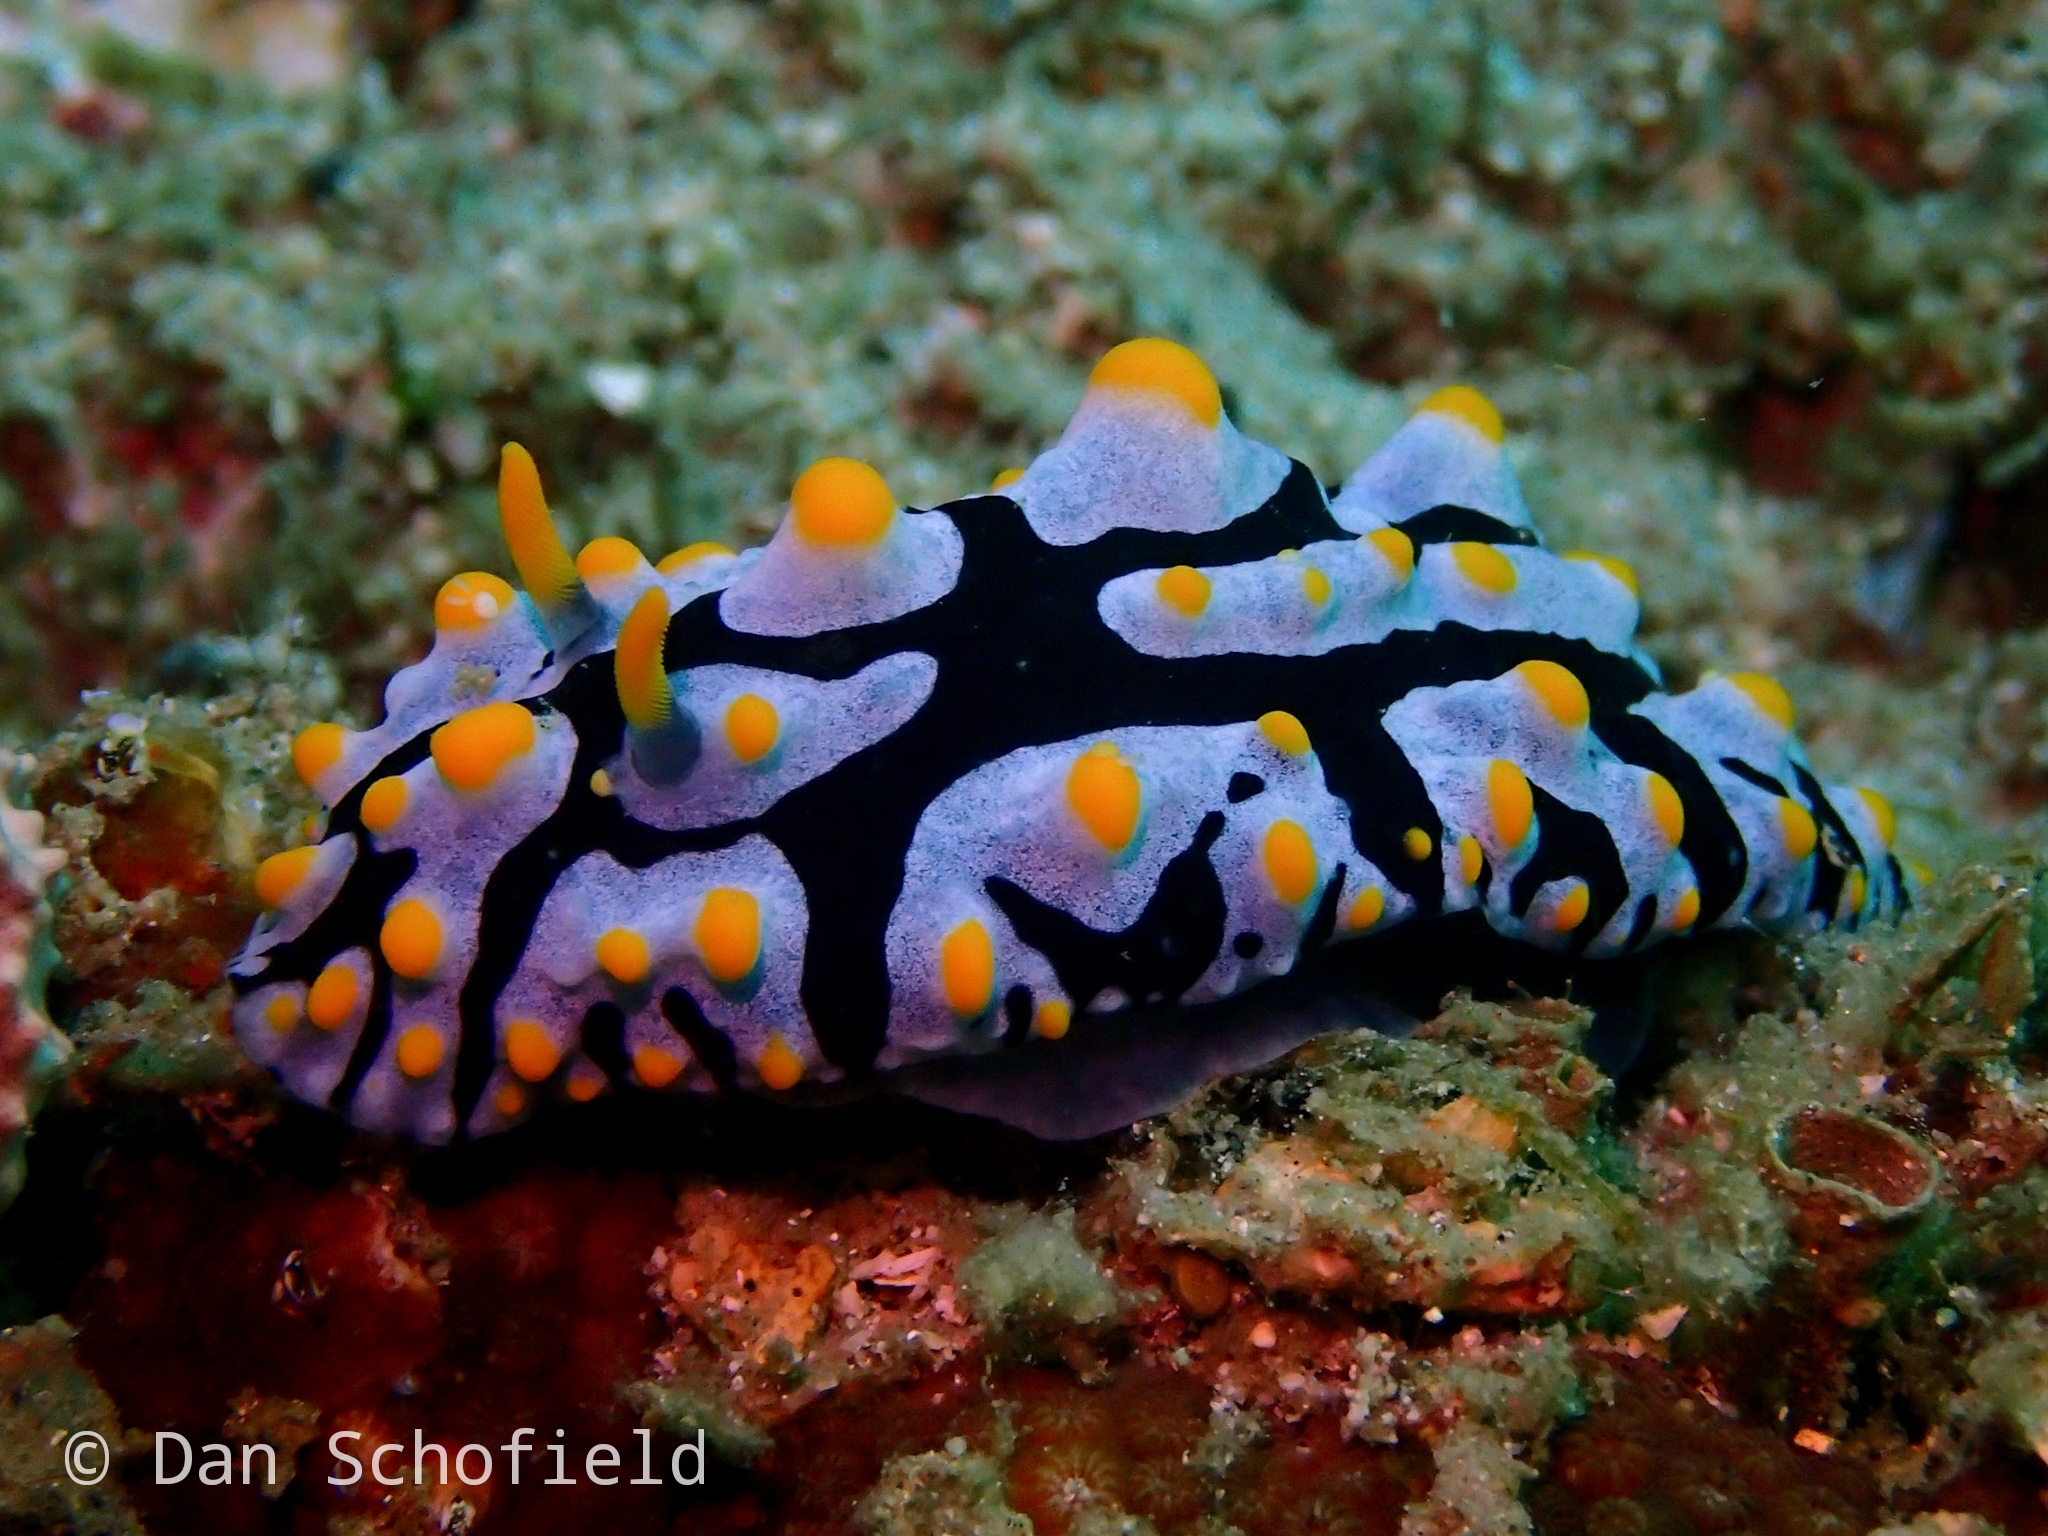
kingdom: Animalia
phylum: Mollusca
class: Gastropoda
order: Nudibranchia
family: Phyllidiidae
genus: Phyllidia
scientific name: Phyllidia varicosa
